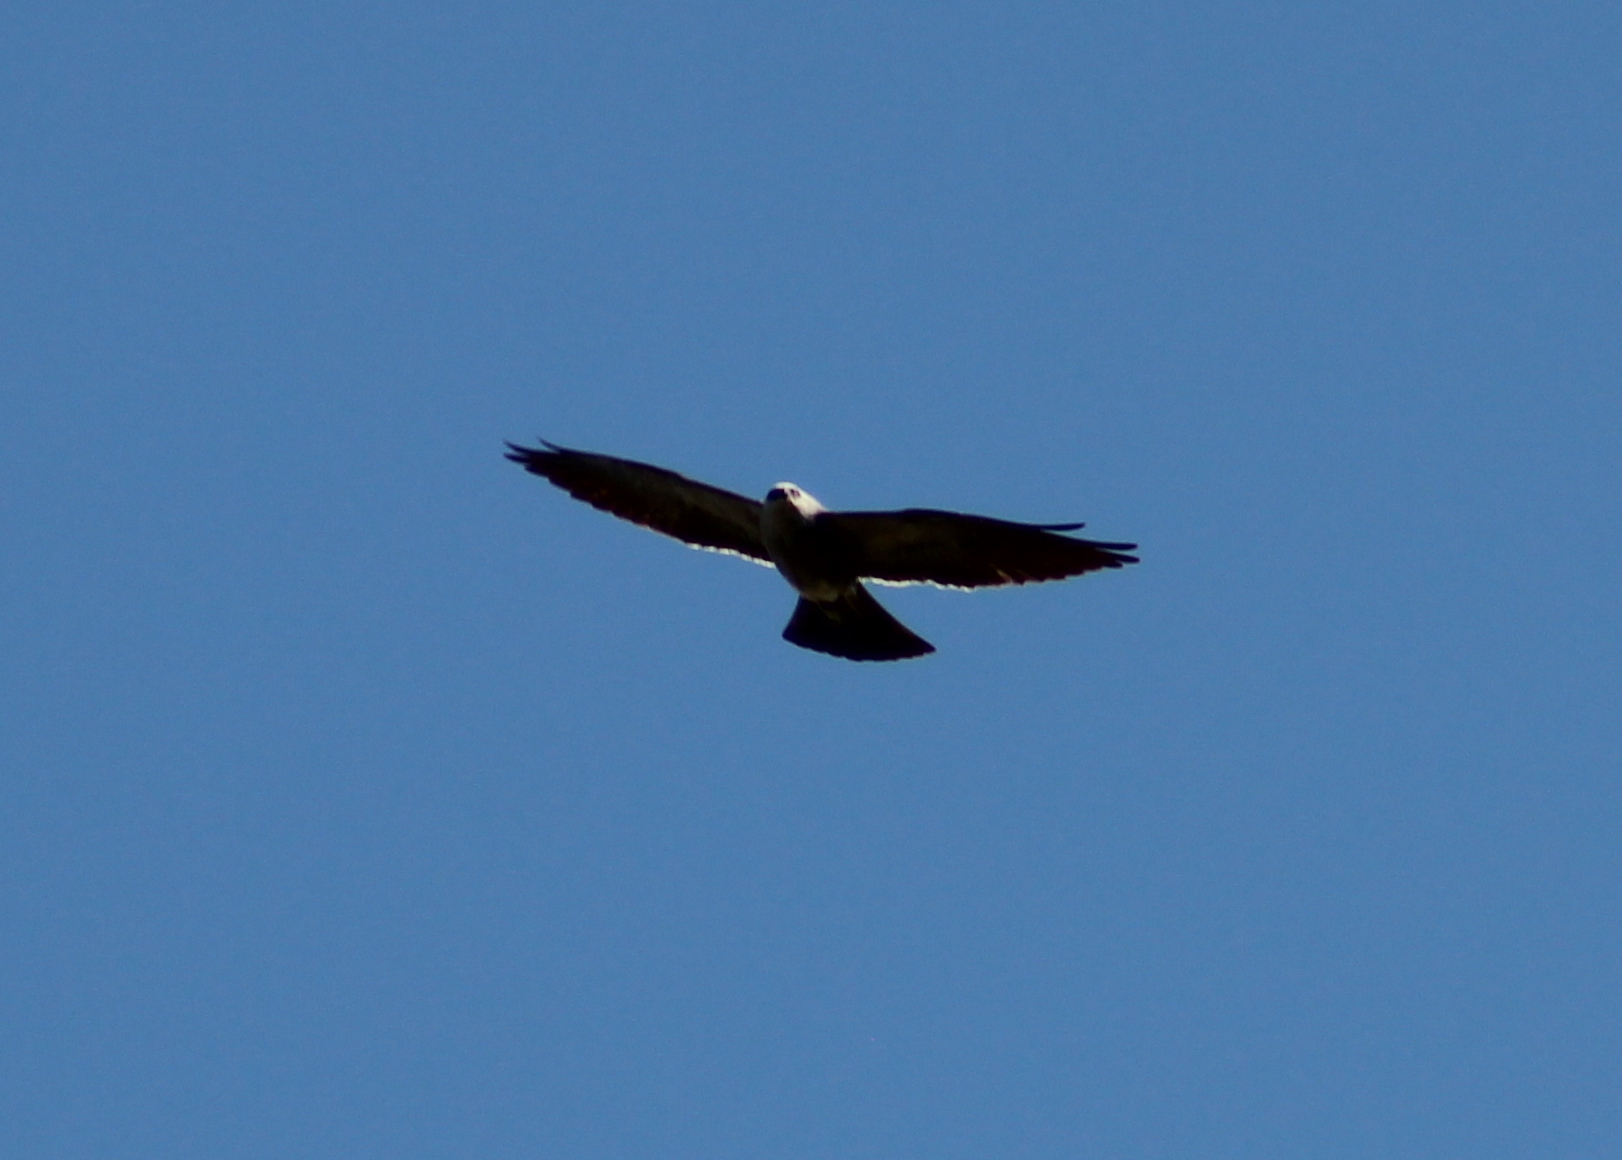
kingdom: Animalia
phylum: Chordata
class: Aves
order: Accipitriformes
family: Accipitridae
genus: Ictinia
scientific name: Ictinia mississippiensis
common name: Mississippi kite
